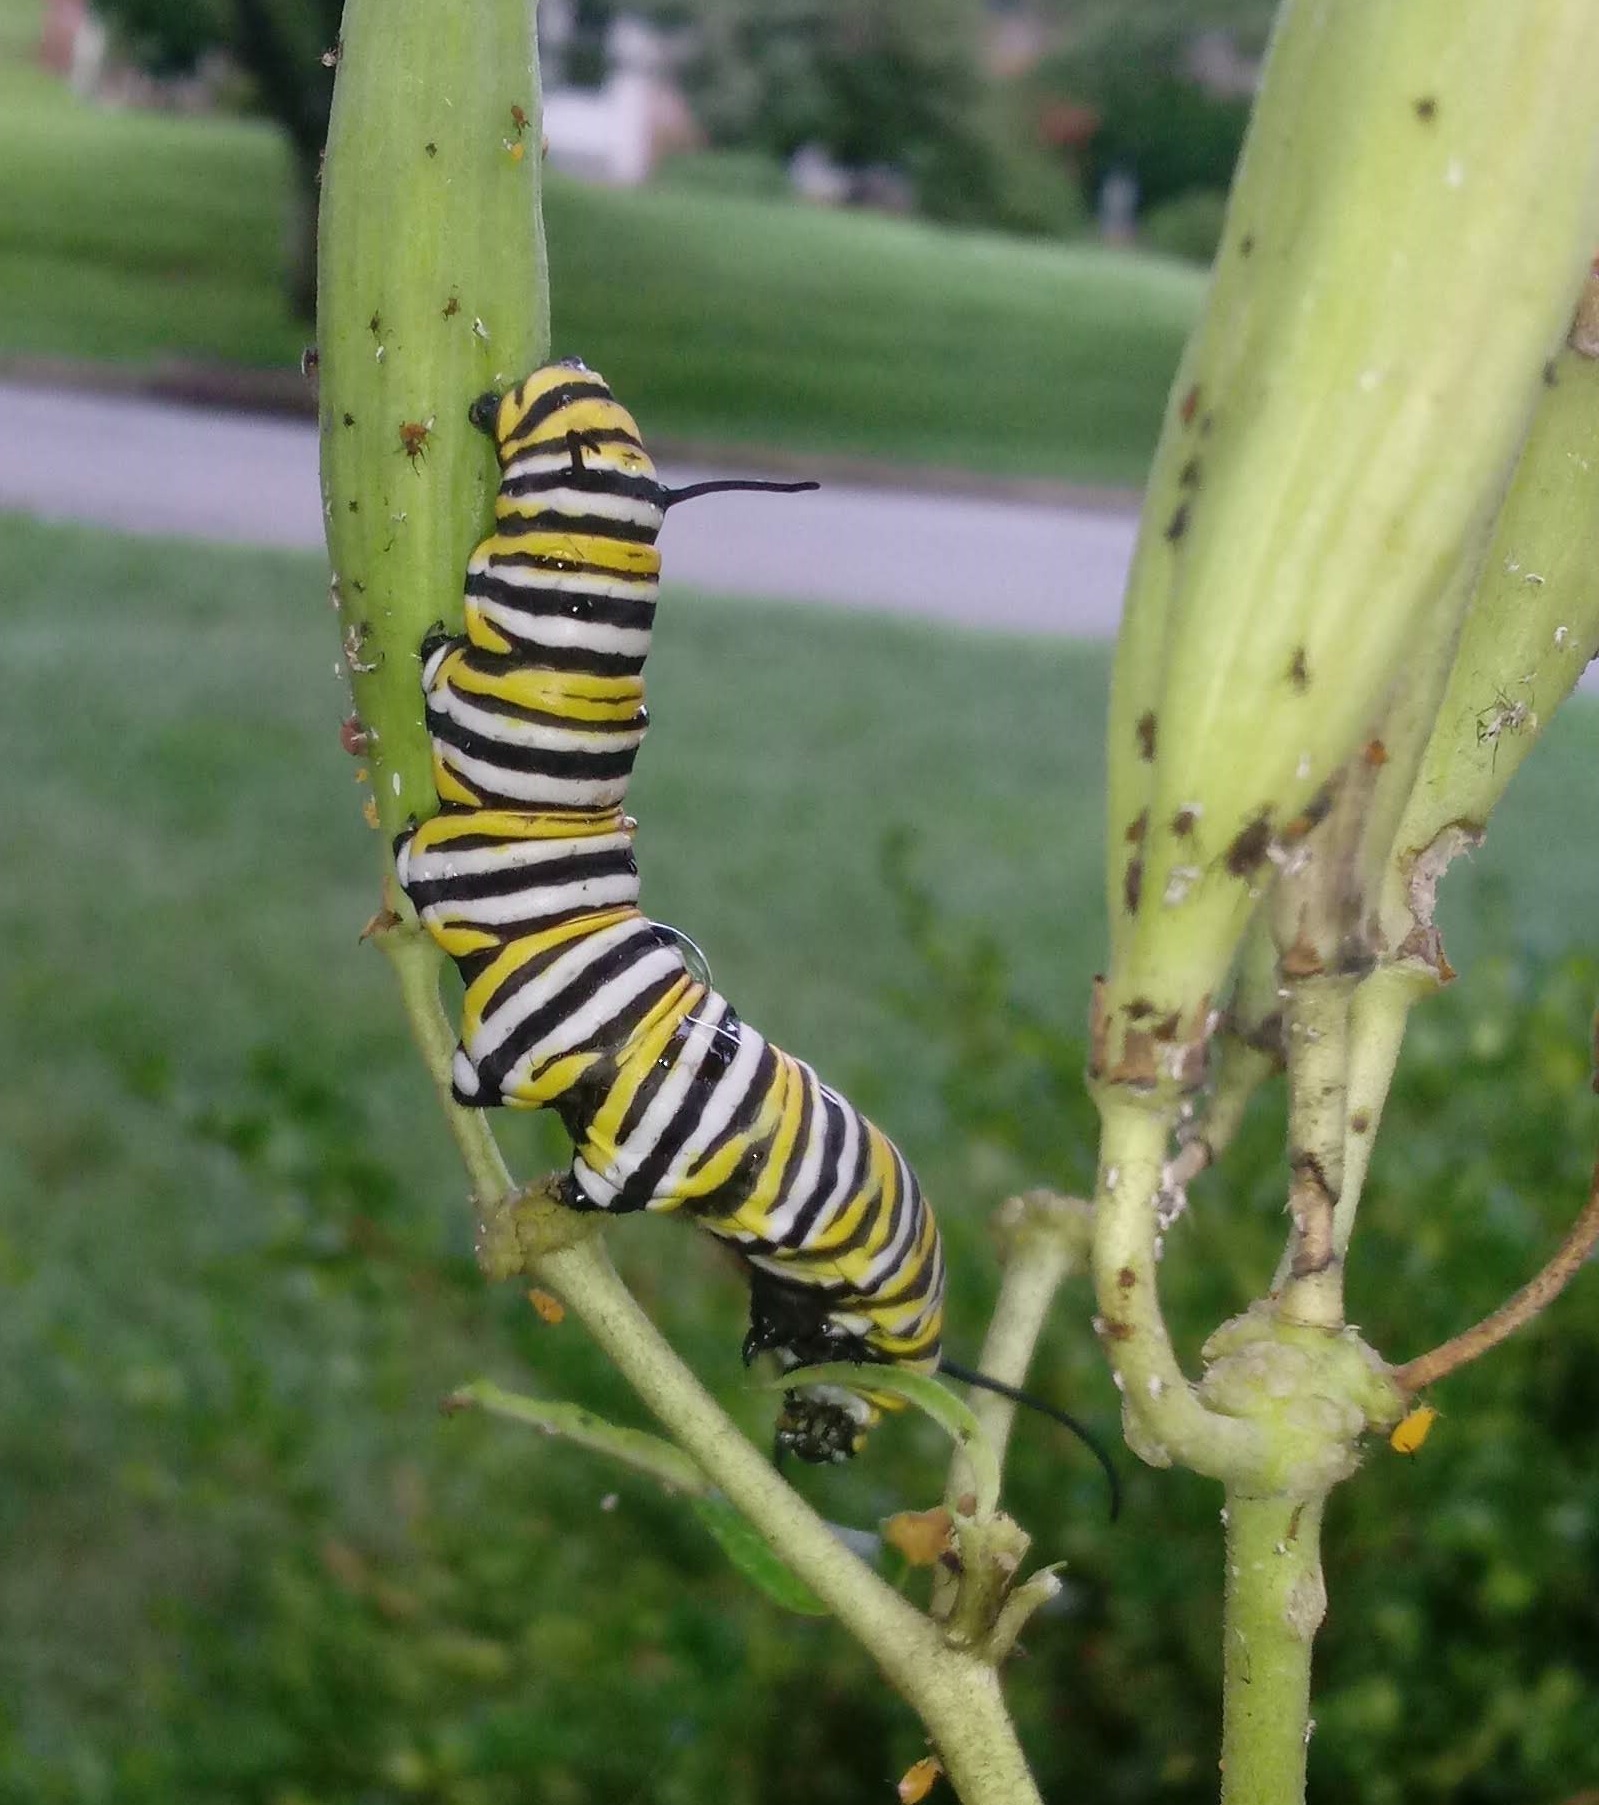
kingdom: Animalia
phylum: Arthropoda
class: Insecta
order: Lepidoptera
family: Nymphalidae
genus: Danaus
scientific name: Danaus plexippus
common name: Monarch
